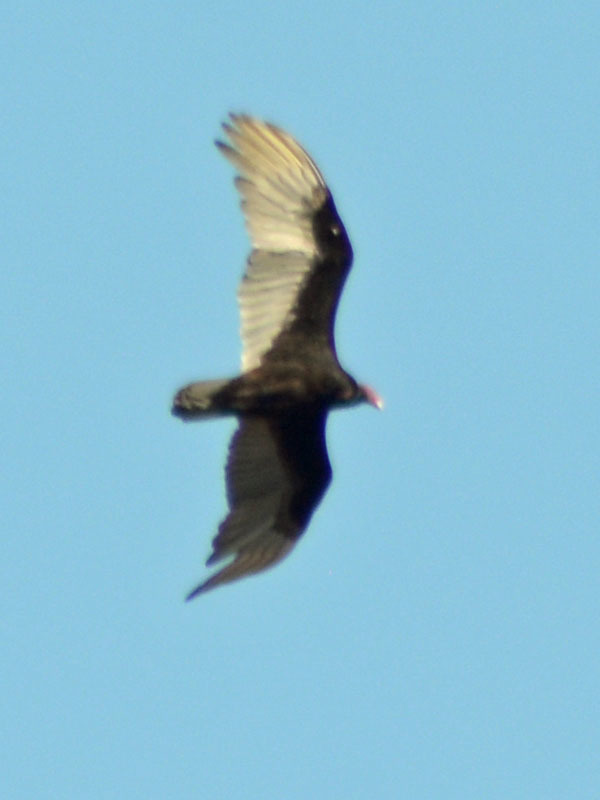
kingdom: Animalia
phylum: Chordata
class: Aves
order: Accipitriformes
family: Cathartidae
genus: Cathartes
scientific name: Cathartes aura
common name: Turkey vulture
